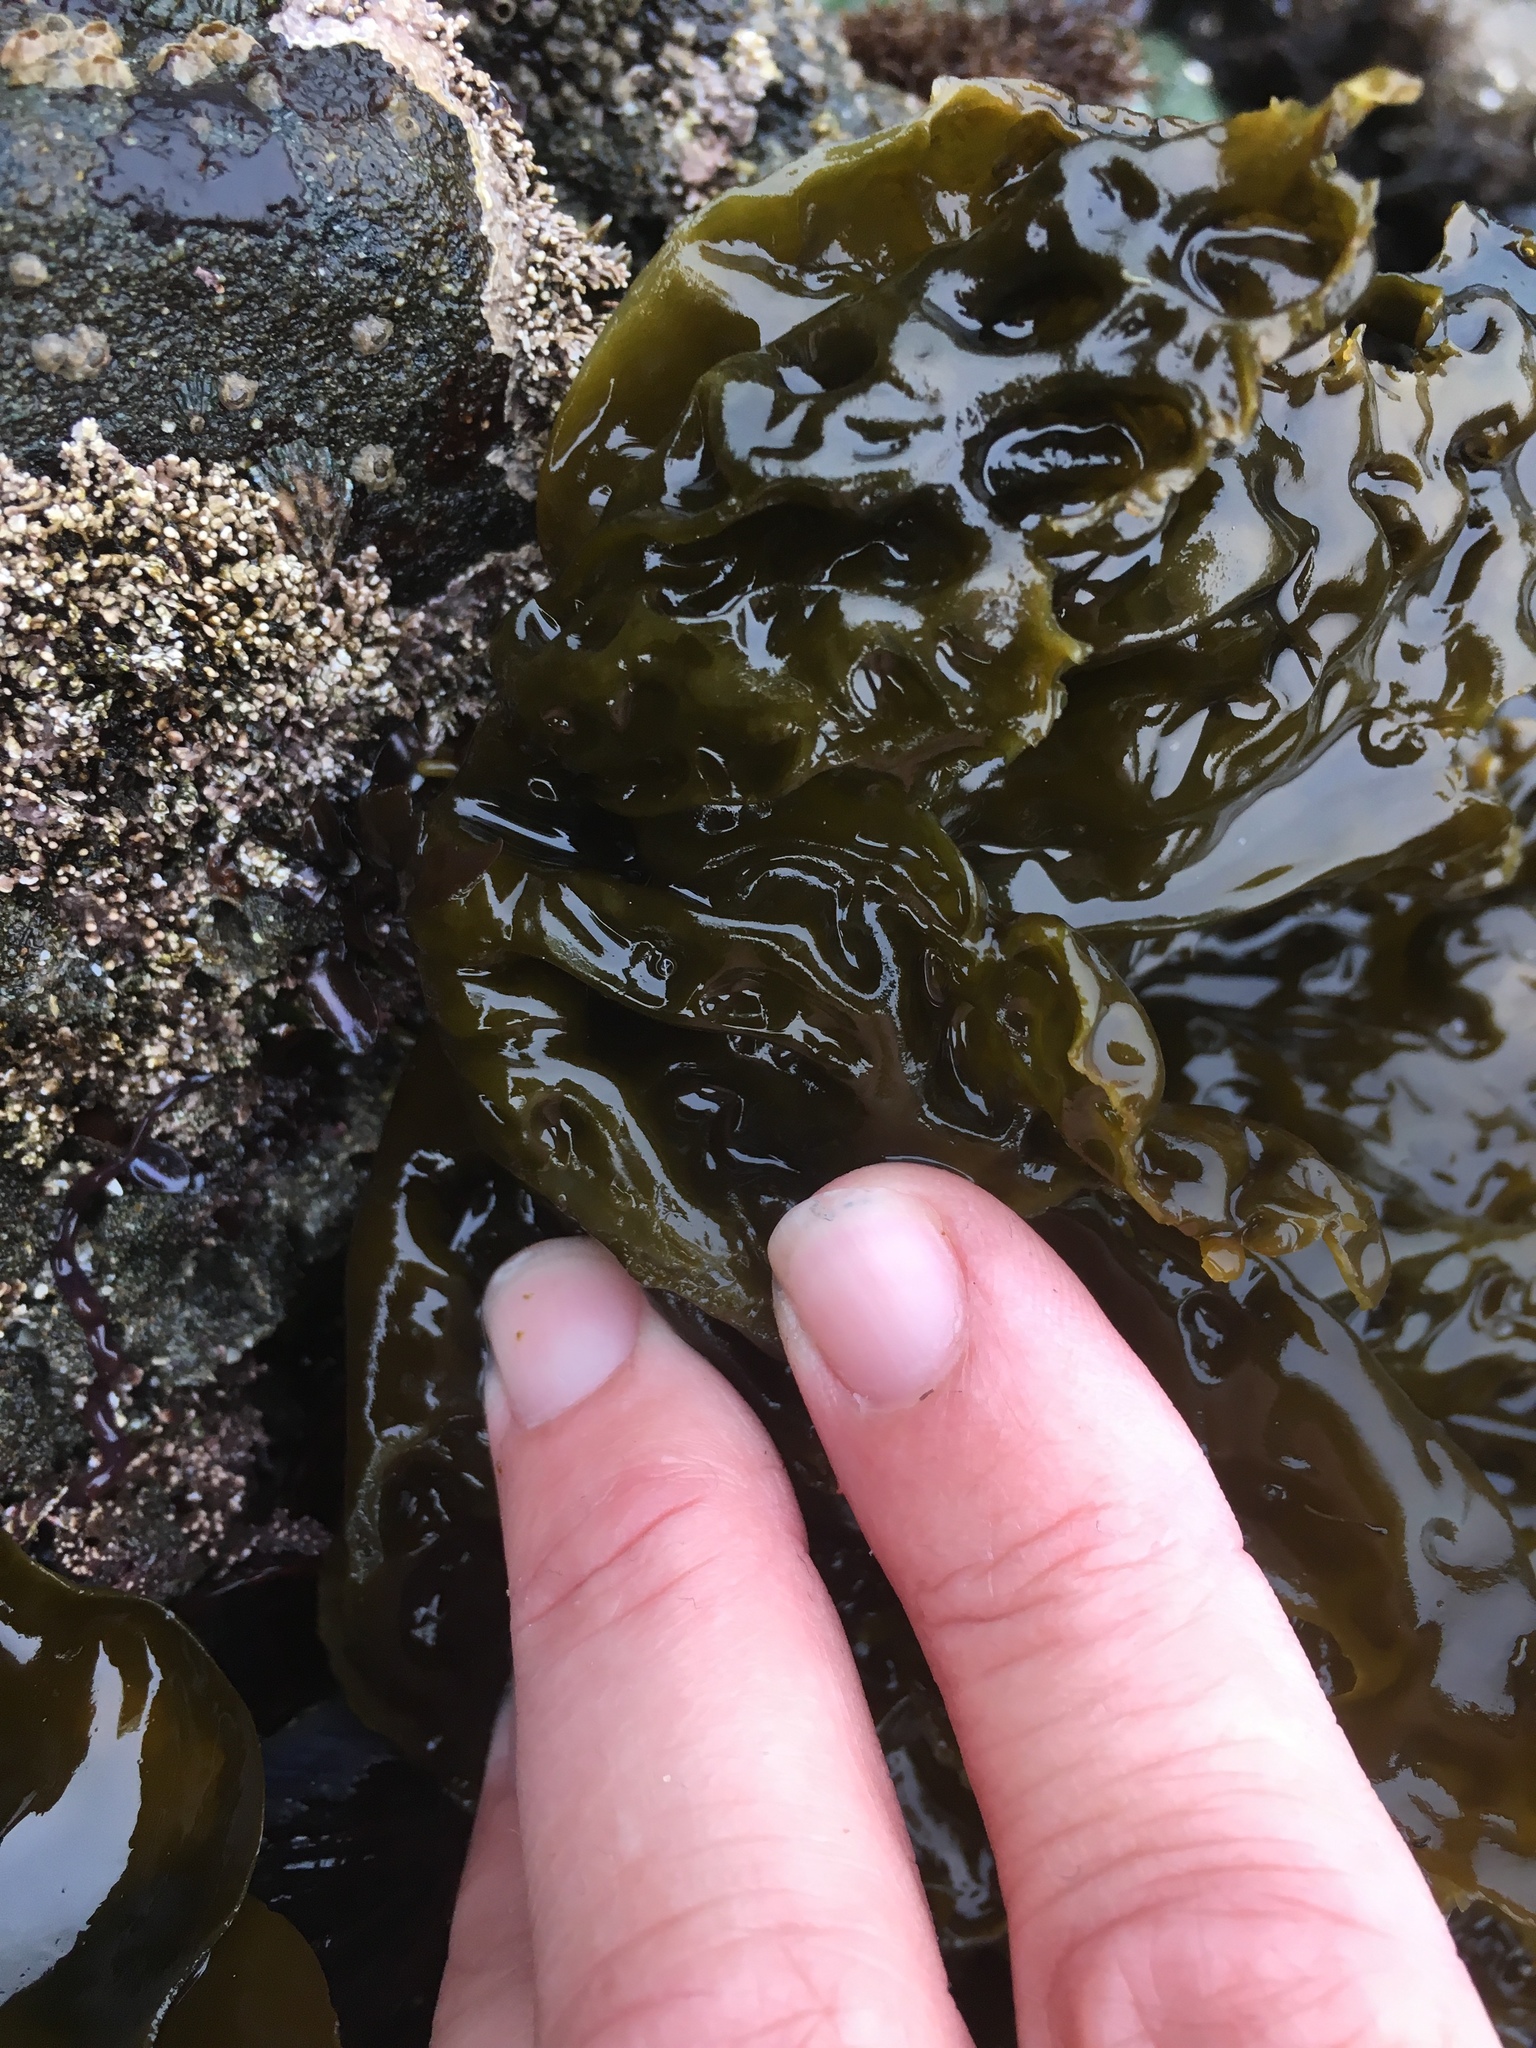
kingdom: Chromista
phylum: Ochrophyta
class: Phaeophyceae
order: Laminariales
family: Laminariaceae
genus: Hedophyllum
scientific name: Hedophyllum sessile
